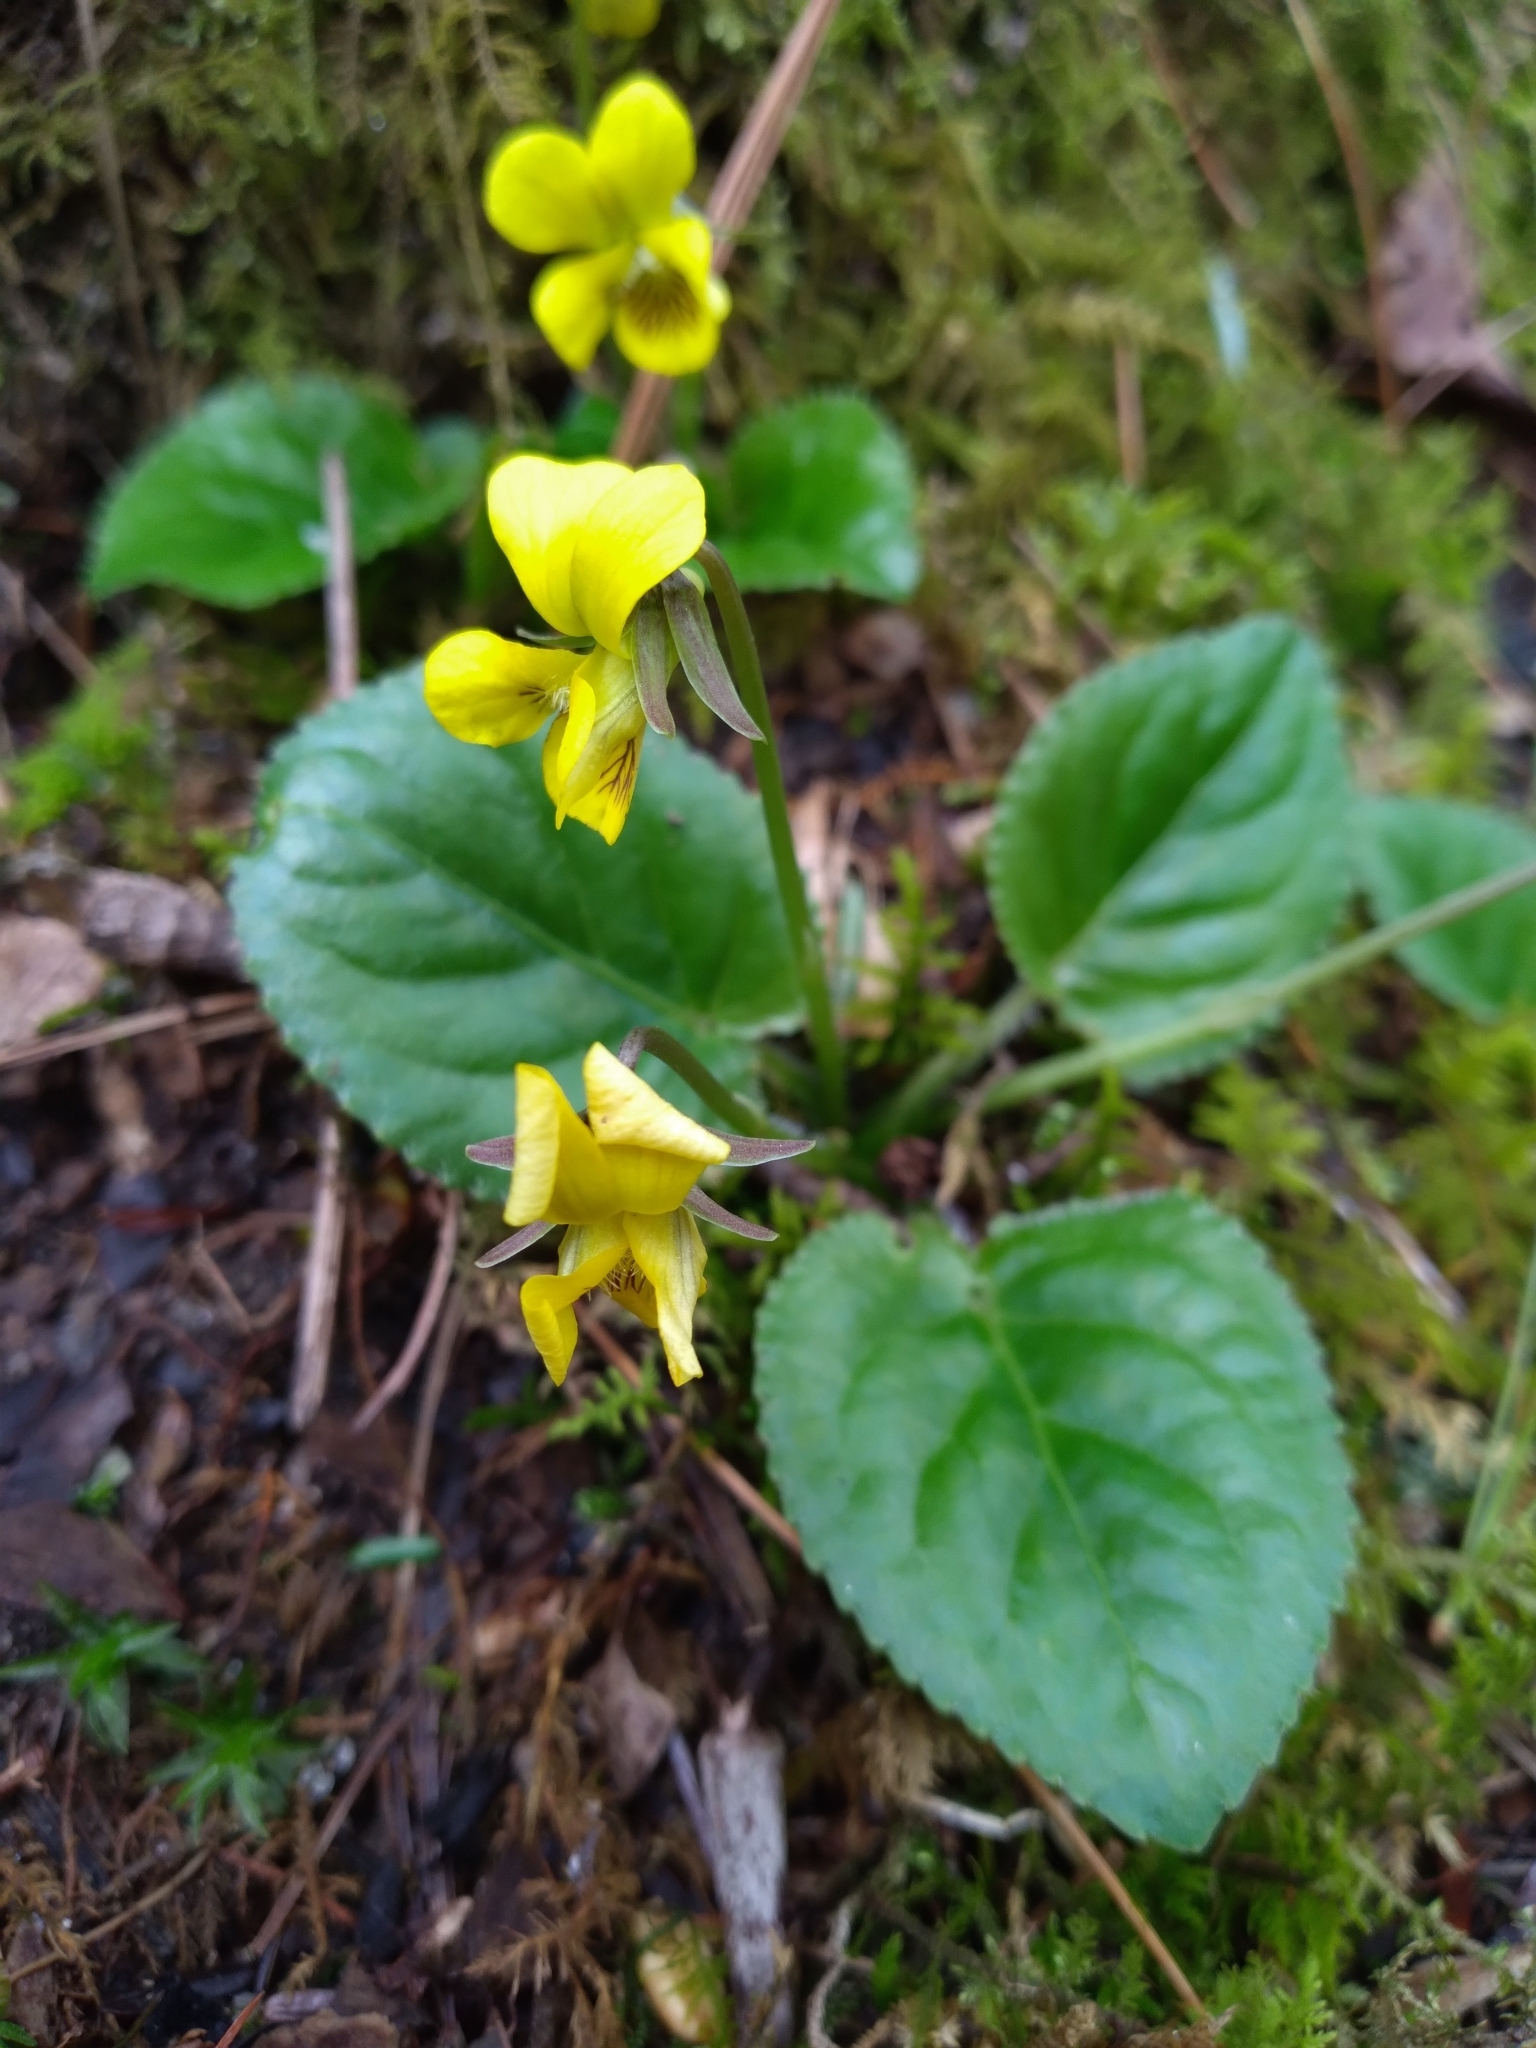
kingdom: Plantae
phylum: Tracheophyta
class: Magnoliopsida
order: Malpighiales
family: Violaceae
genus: Viola
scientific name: Viola rotundifolia
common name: Early yellow violet
